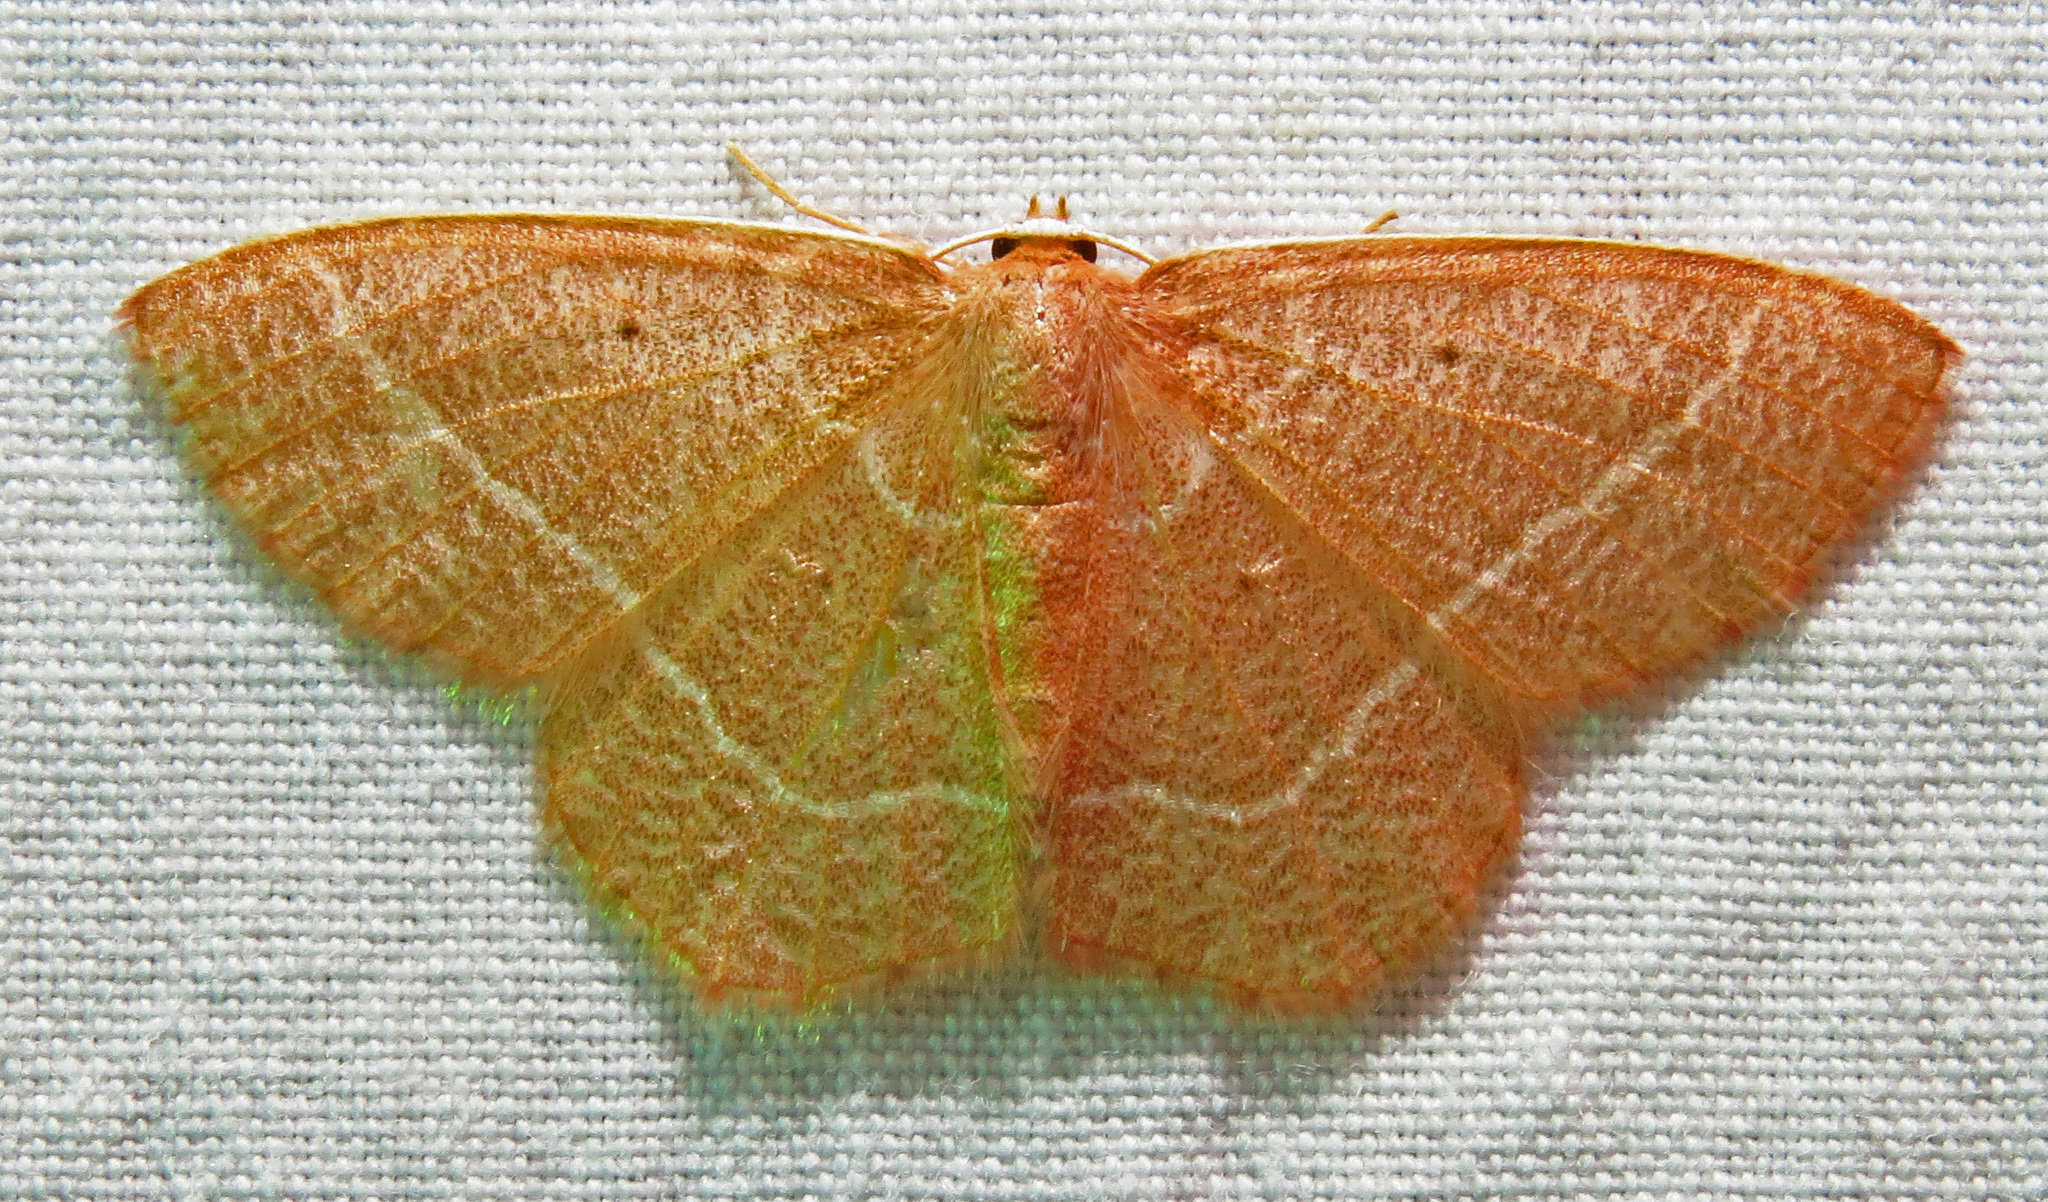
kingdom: Animalia
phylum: Arthropoda
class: Insecta
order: Lepidoptera
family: Geometridae
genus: Nemoria
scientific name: Nemoria bistriaria
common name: Red-fringed emerald
